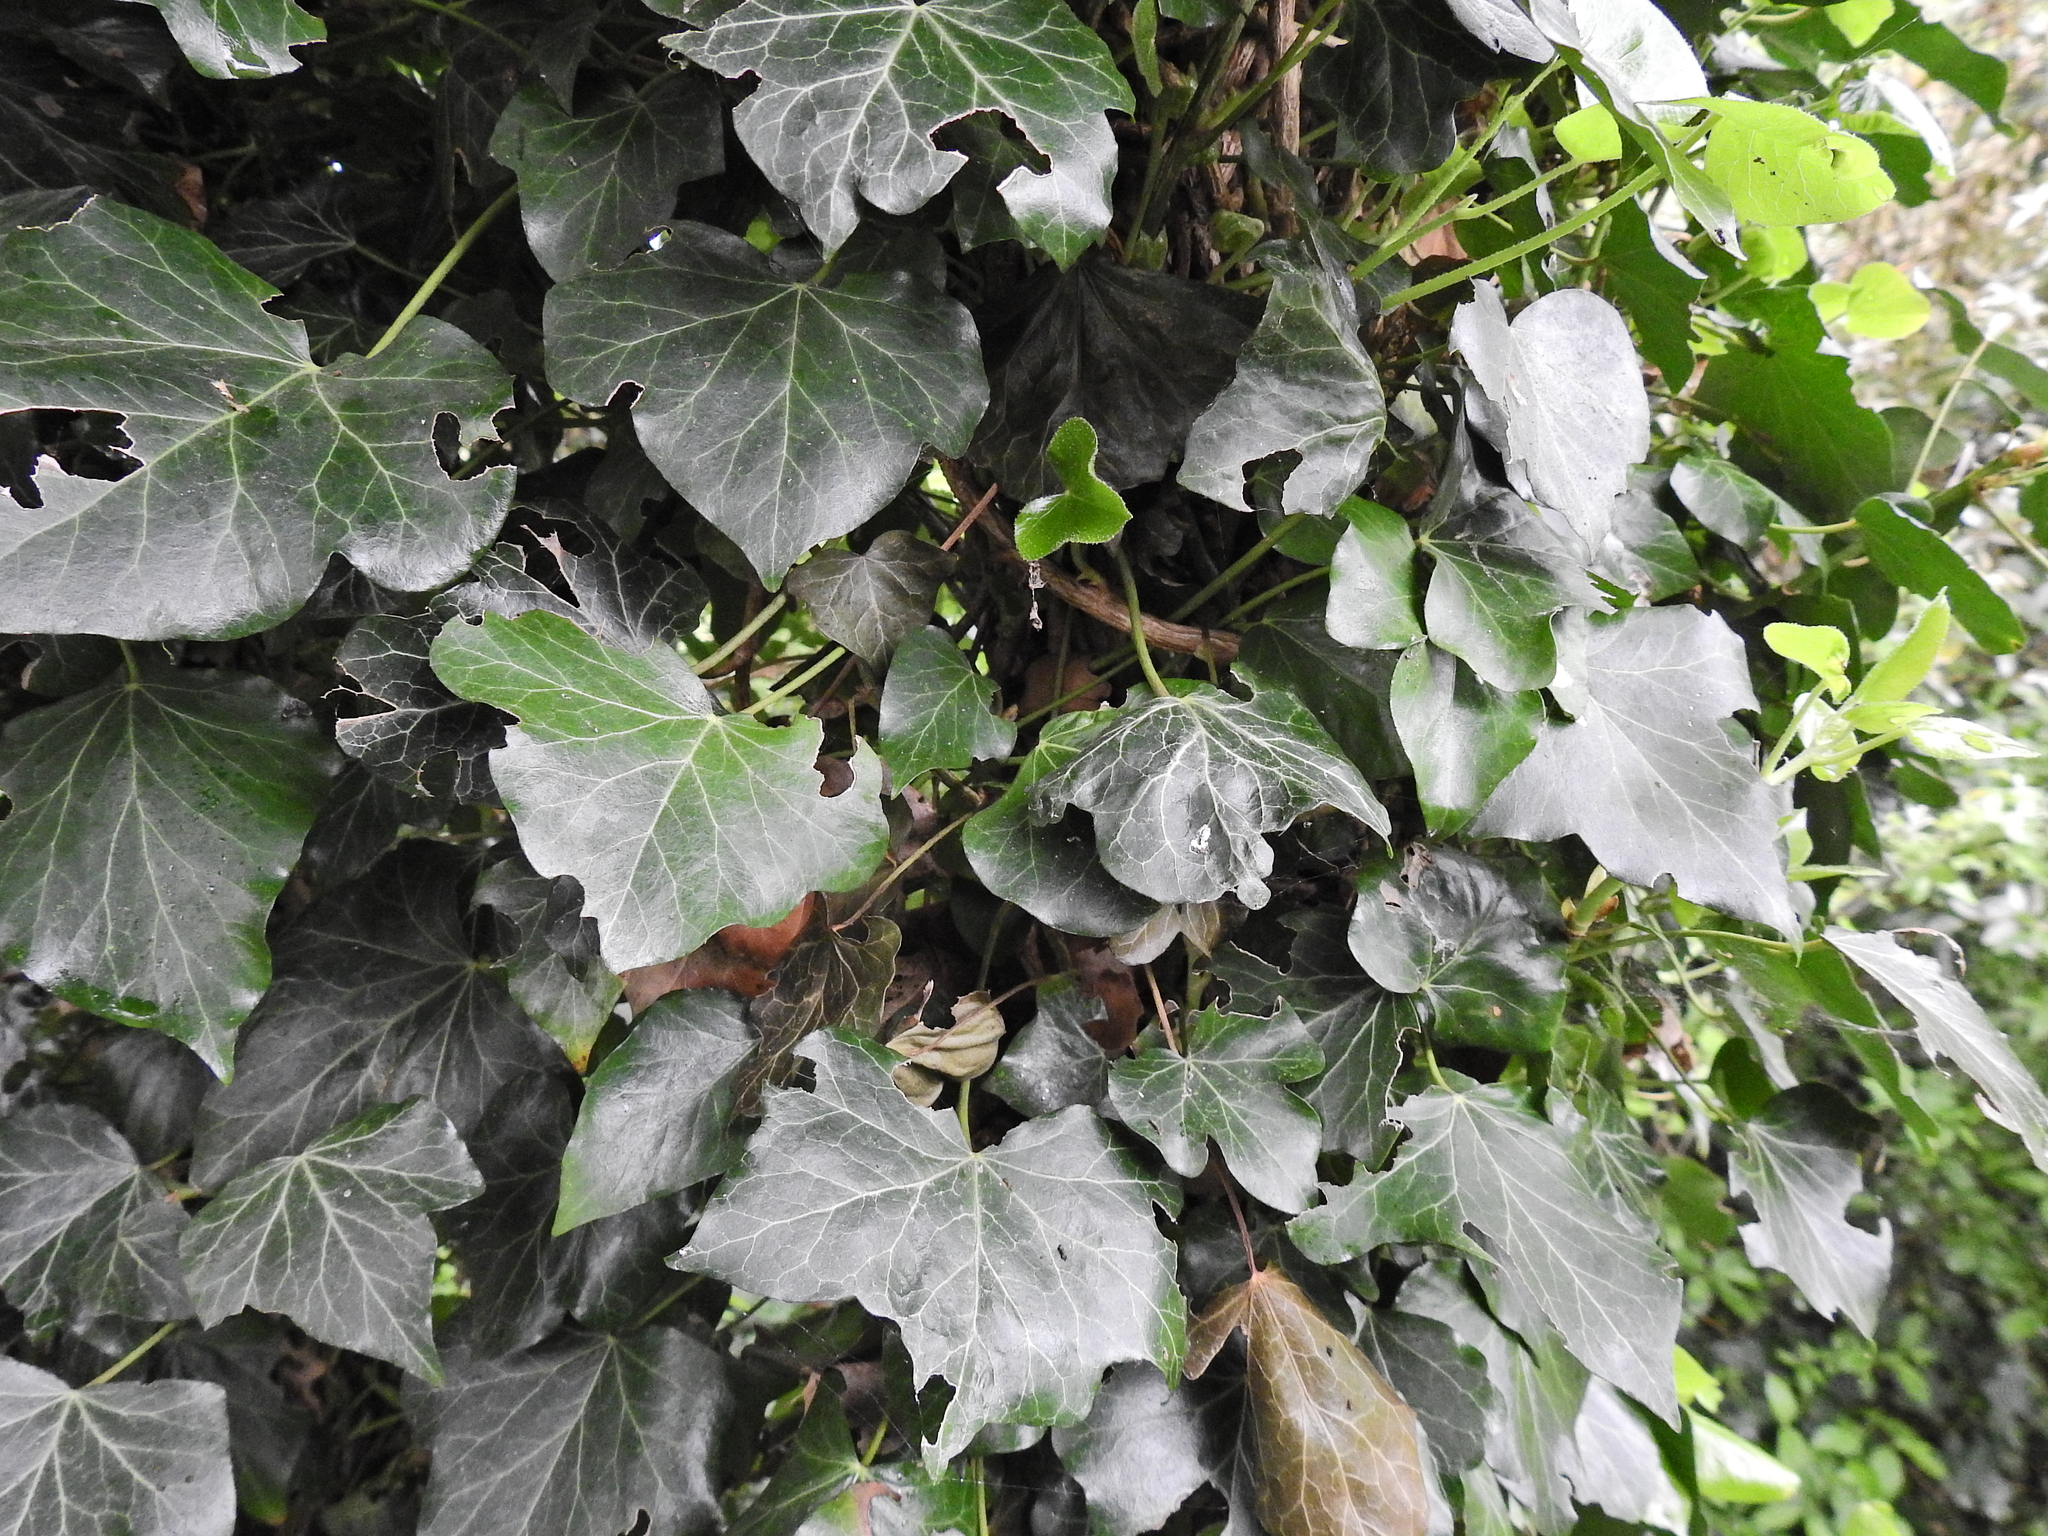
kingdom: Plantae
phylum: Tracheophyta
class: Magnoliopsida
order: Apiales
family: Araliaceae
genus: Hedera
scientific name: Hedera helix
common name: Ivy
